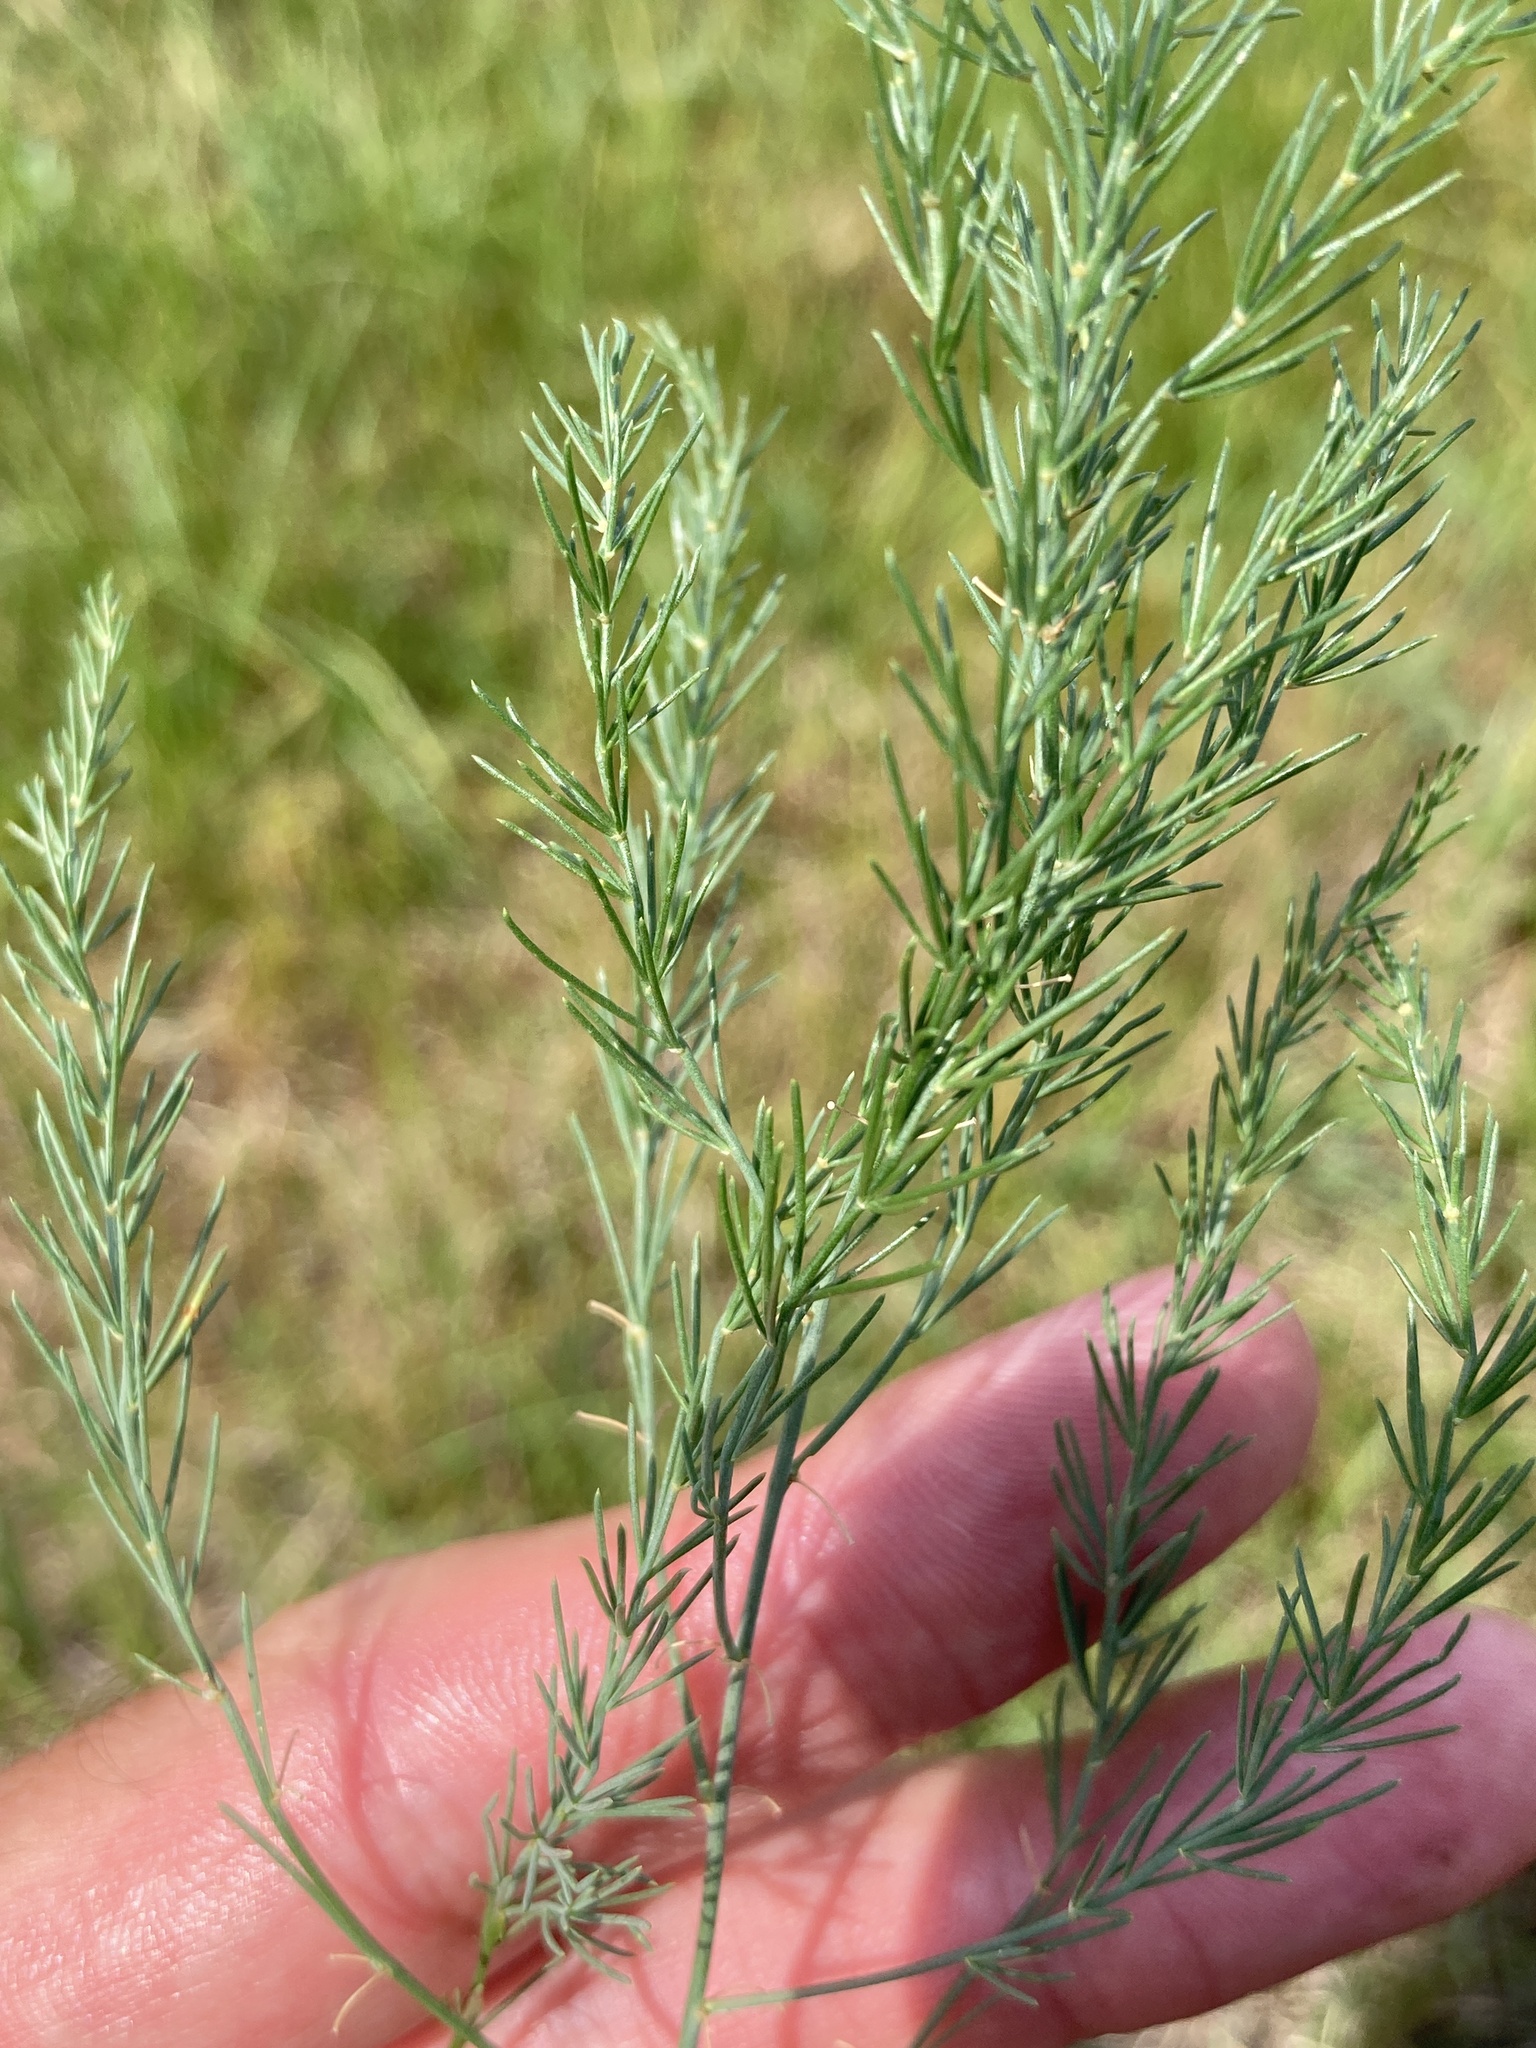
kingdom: Plantae
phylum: Tracheophyta
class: Liliopsida
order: Asparagales
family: Asparagaceae
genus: Asparagus
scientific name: Asparagus officinalis
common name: Garden asparagus
